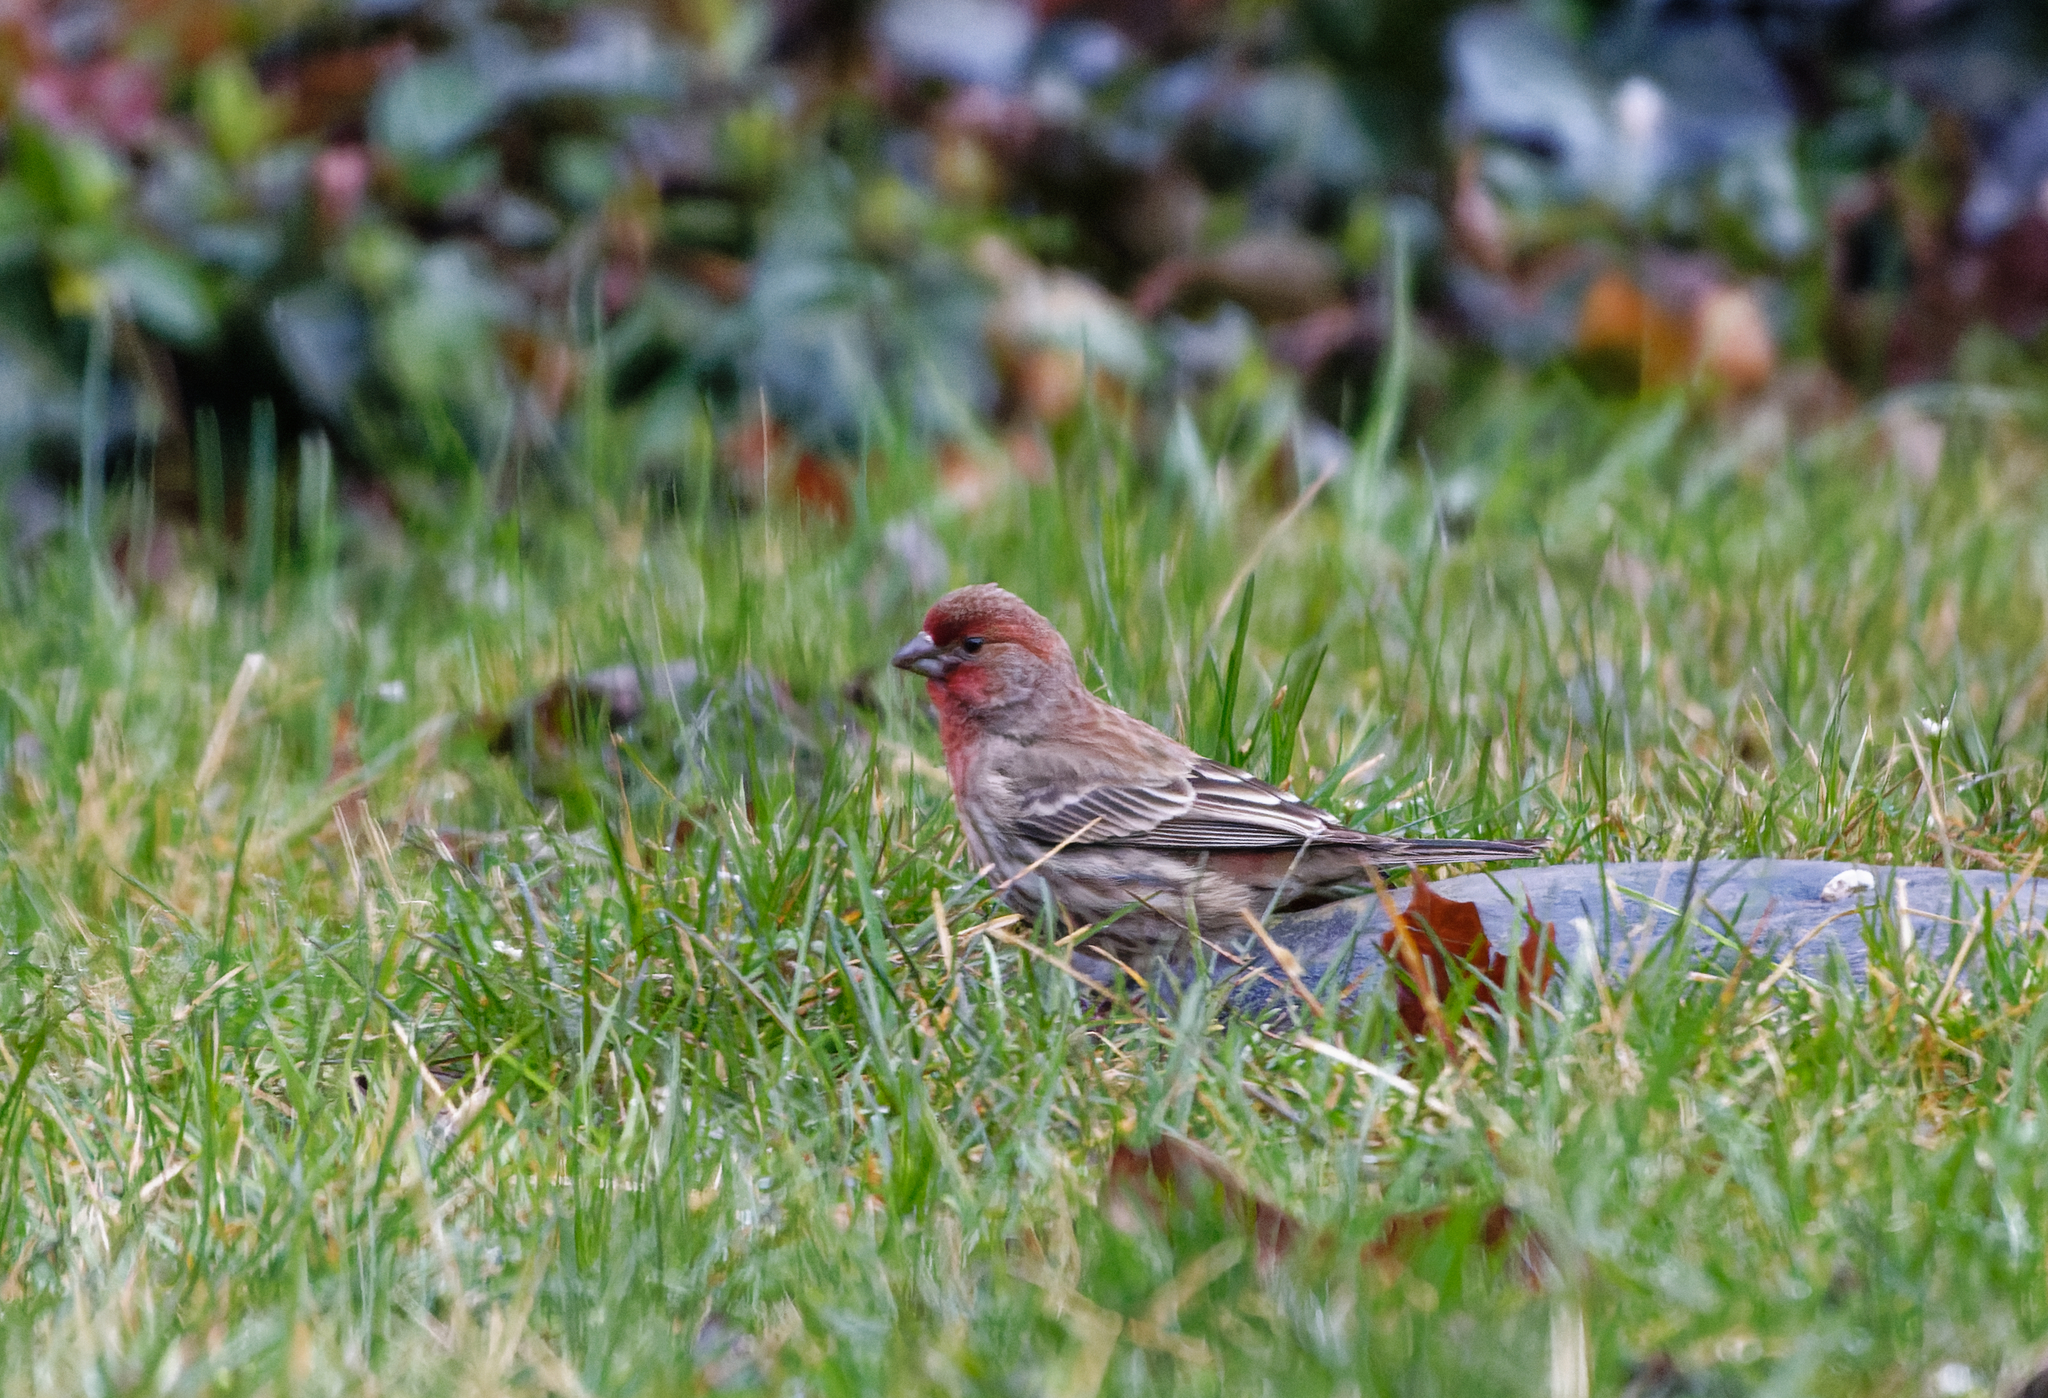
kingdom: Animalia
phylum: Chordata
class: Aves
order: Passeriformes
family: Fringillidae
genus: Haemorhous
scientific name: Haemorhous mexicanus
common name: House finch
